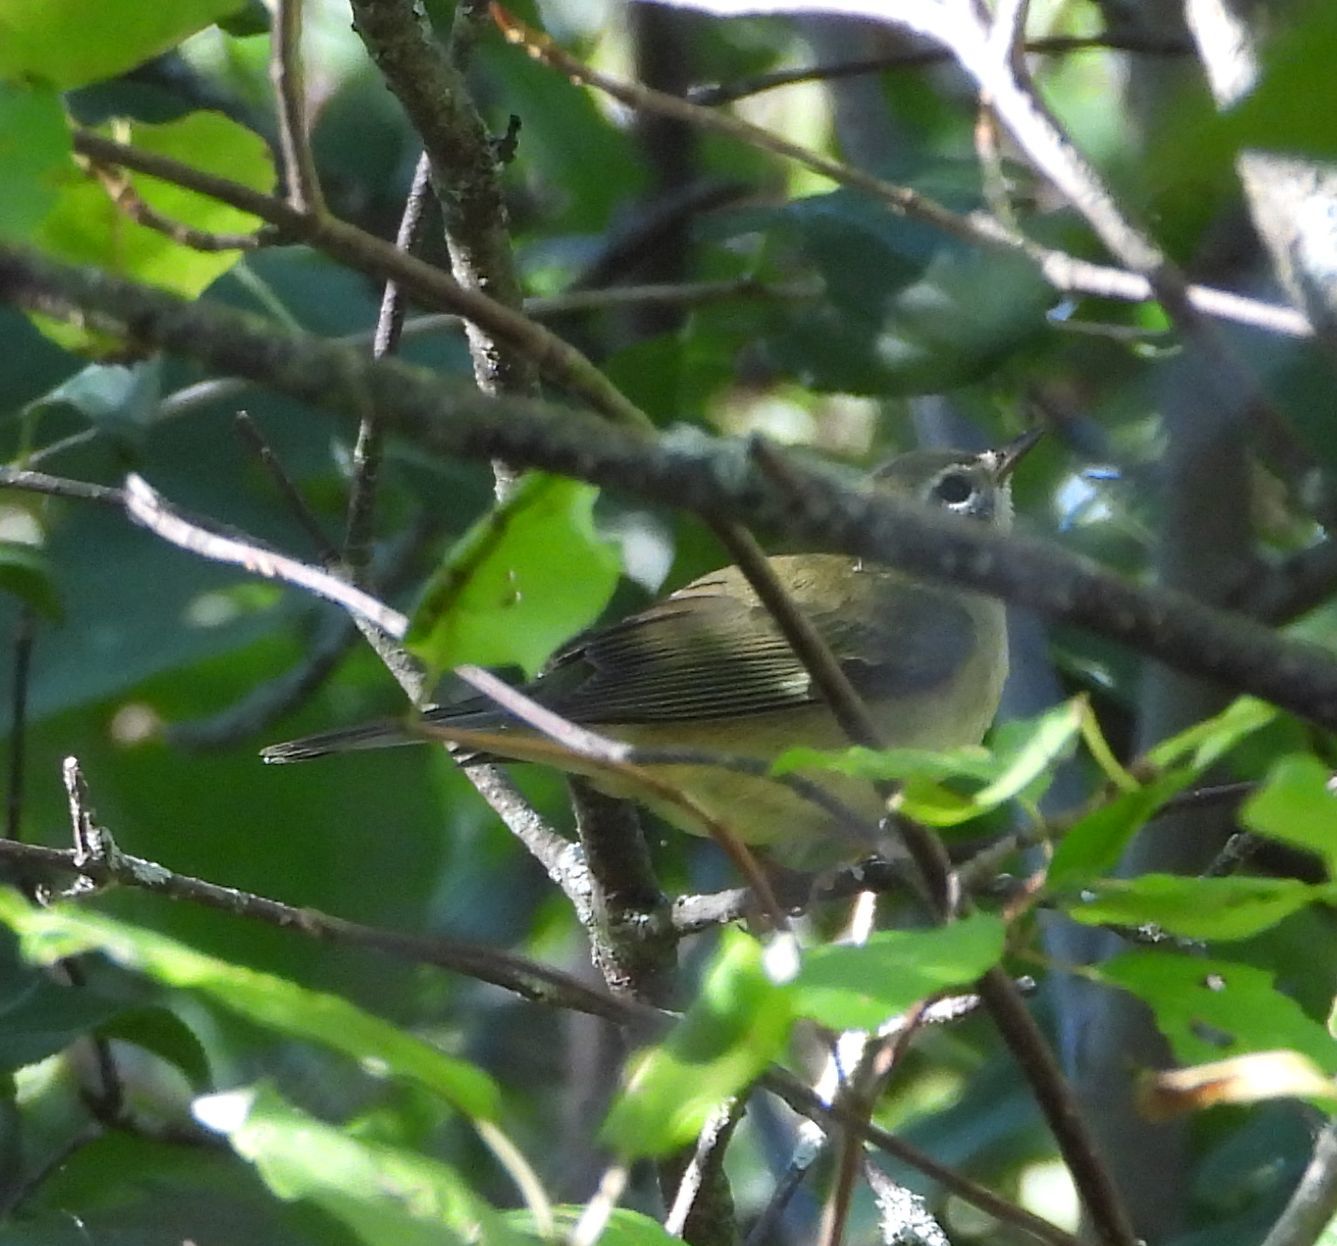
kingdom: Animalia
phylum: Chordata
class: Aves
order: Passeriformes
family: Parulidae
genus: Setophaga
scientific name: Setophaga caerulescens
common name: Black-throated blue warbler
